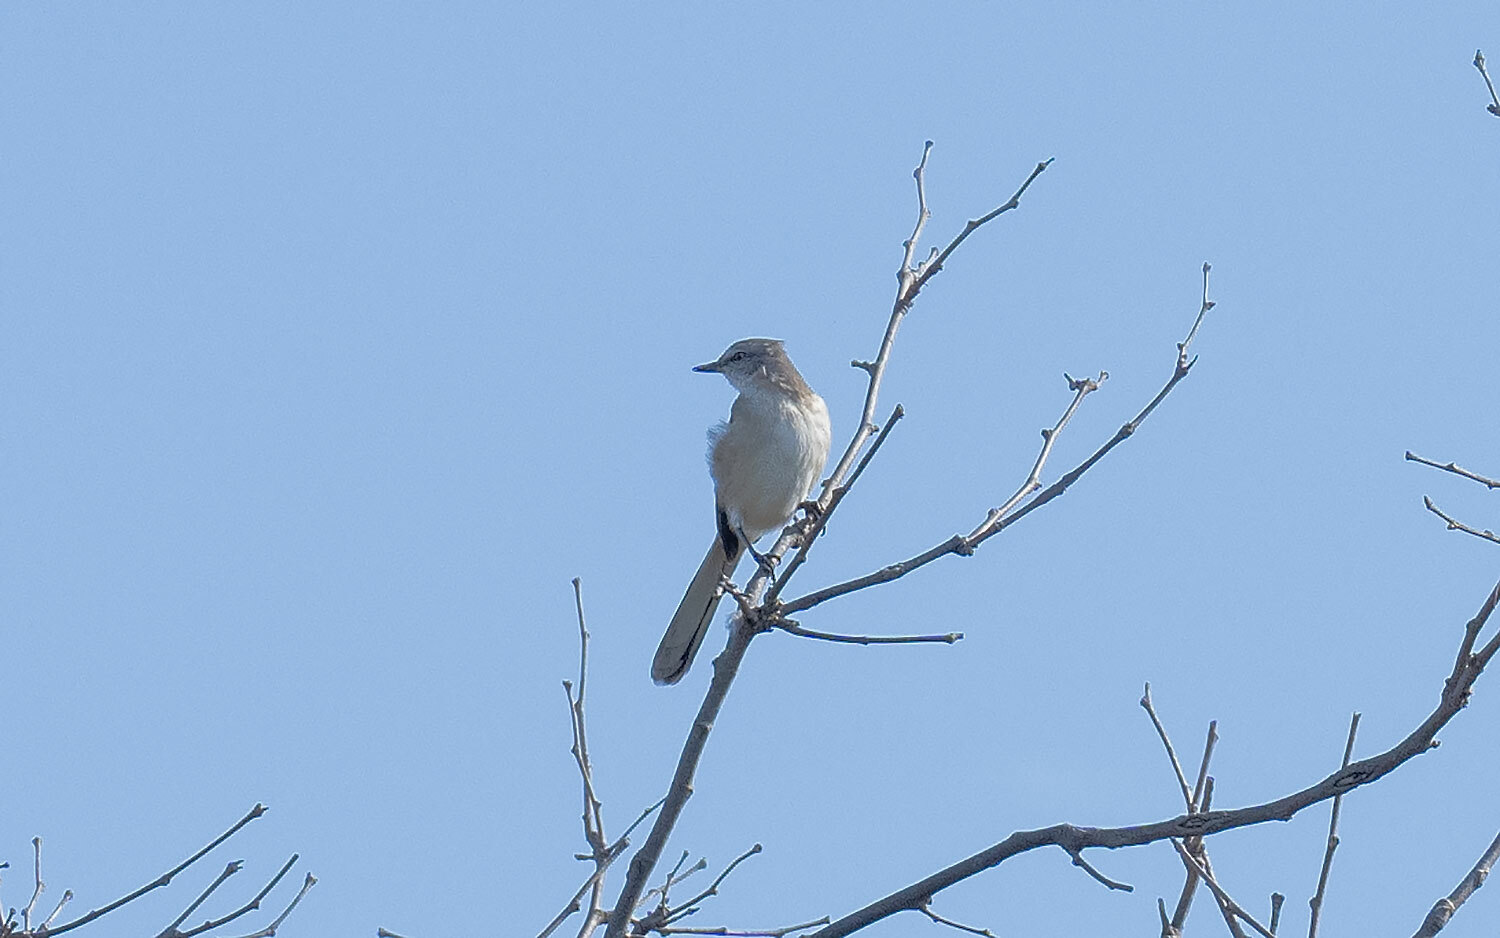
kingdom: Animalia
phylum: Chordata
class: Aves
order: Passeriformes
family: Mimidae
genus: Mimus
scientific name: Mimus polyglottos
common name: Northern mockingbird
